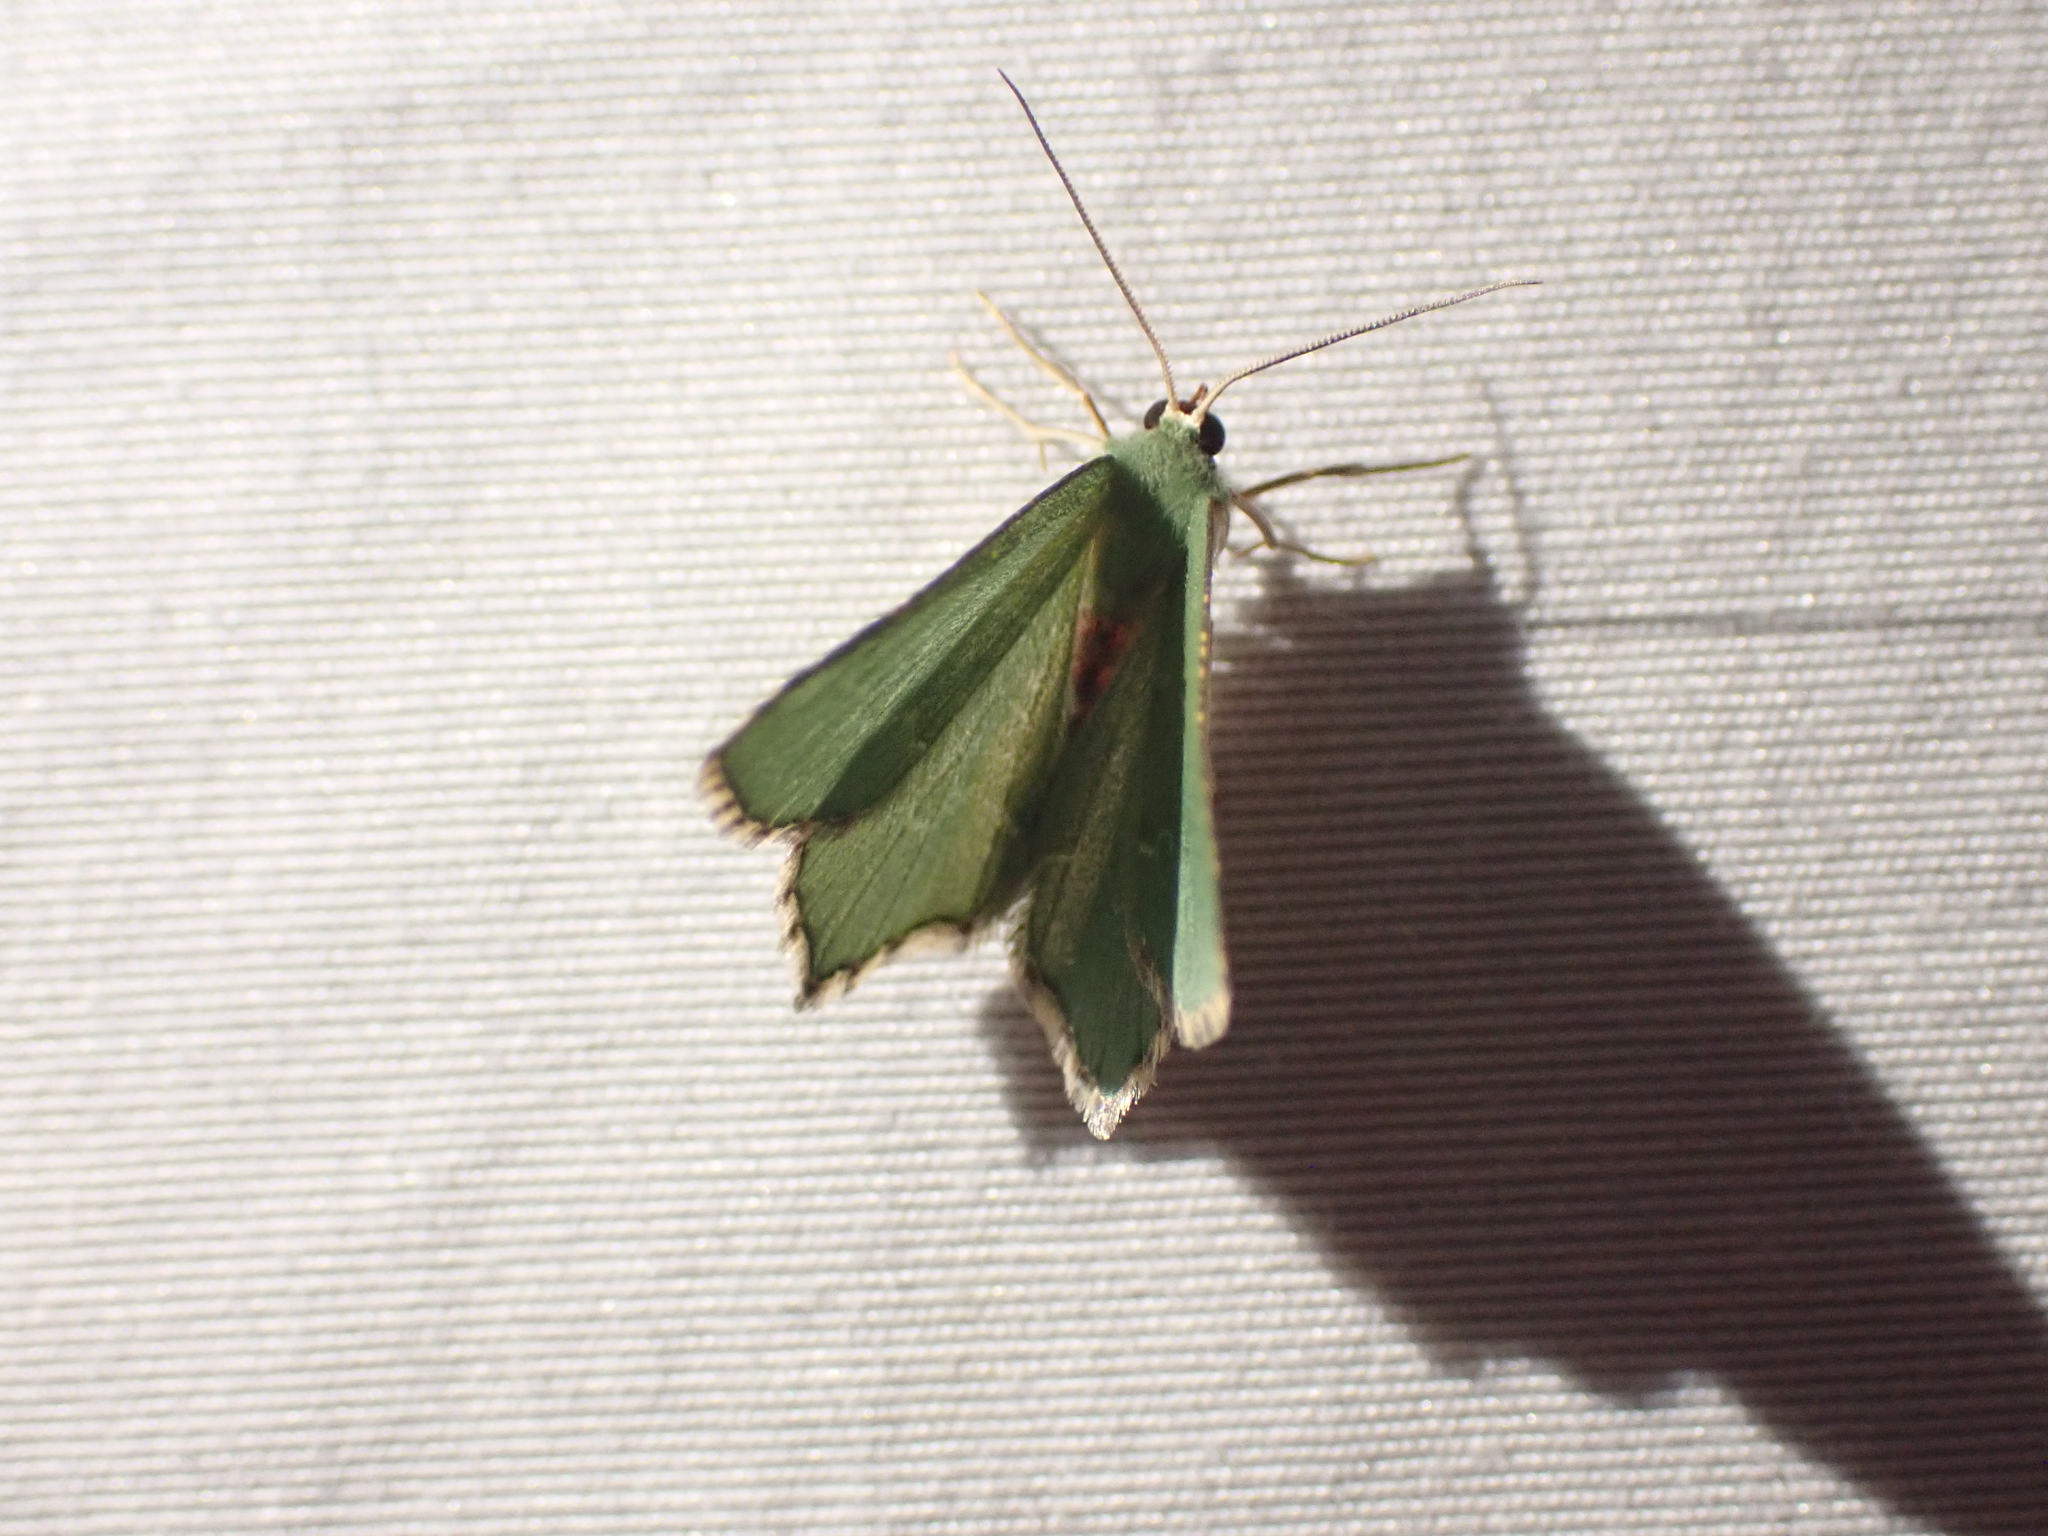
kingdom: Animalia
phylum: Arthropoda
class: Insecta
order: Lepidoptera
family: Geometridae
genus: Hemithea
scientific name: Hemithea aestivaria
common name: Common emerald
